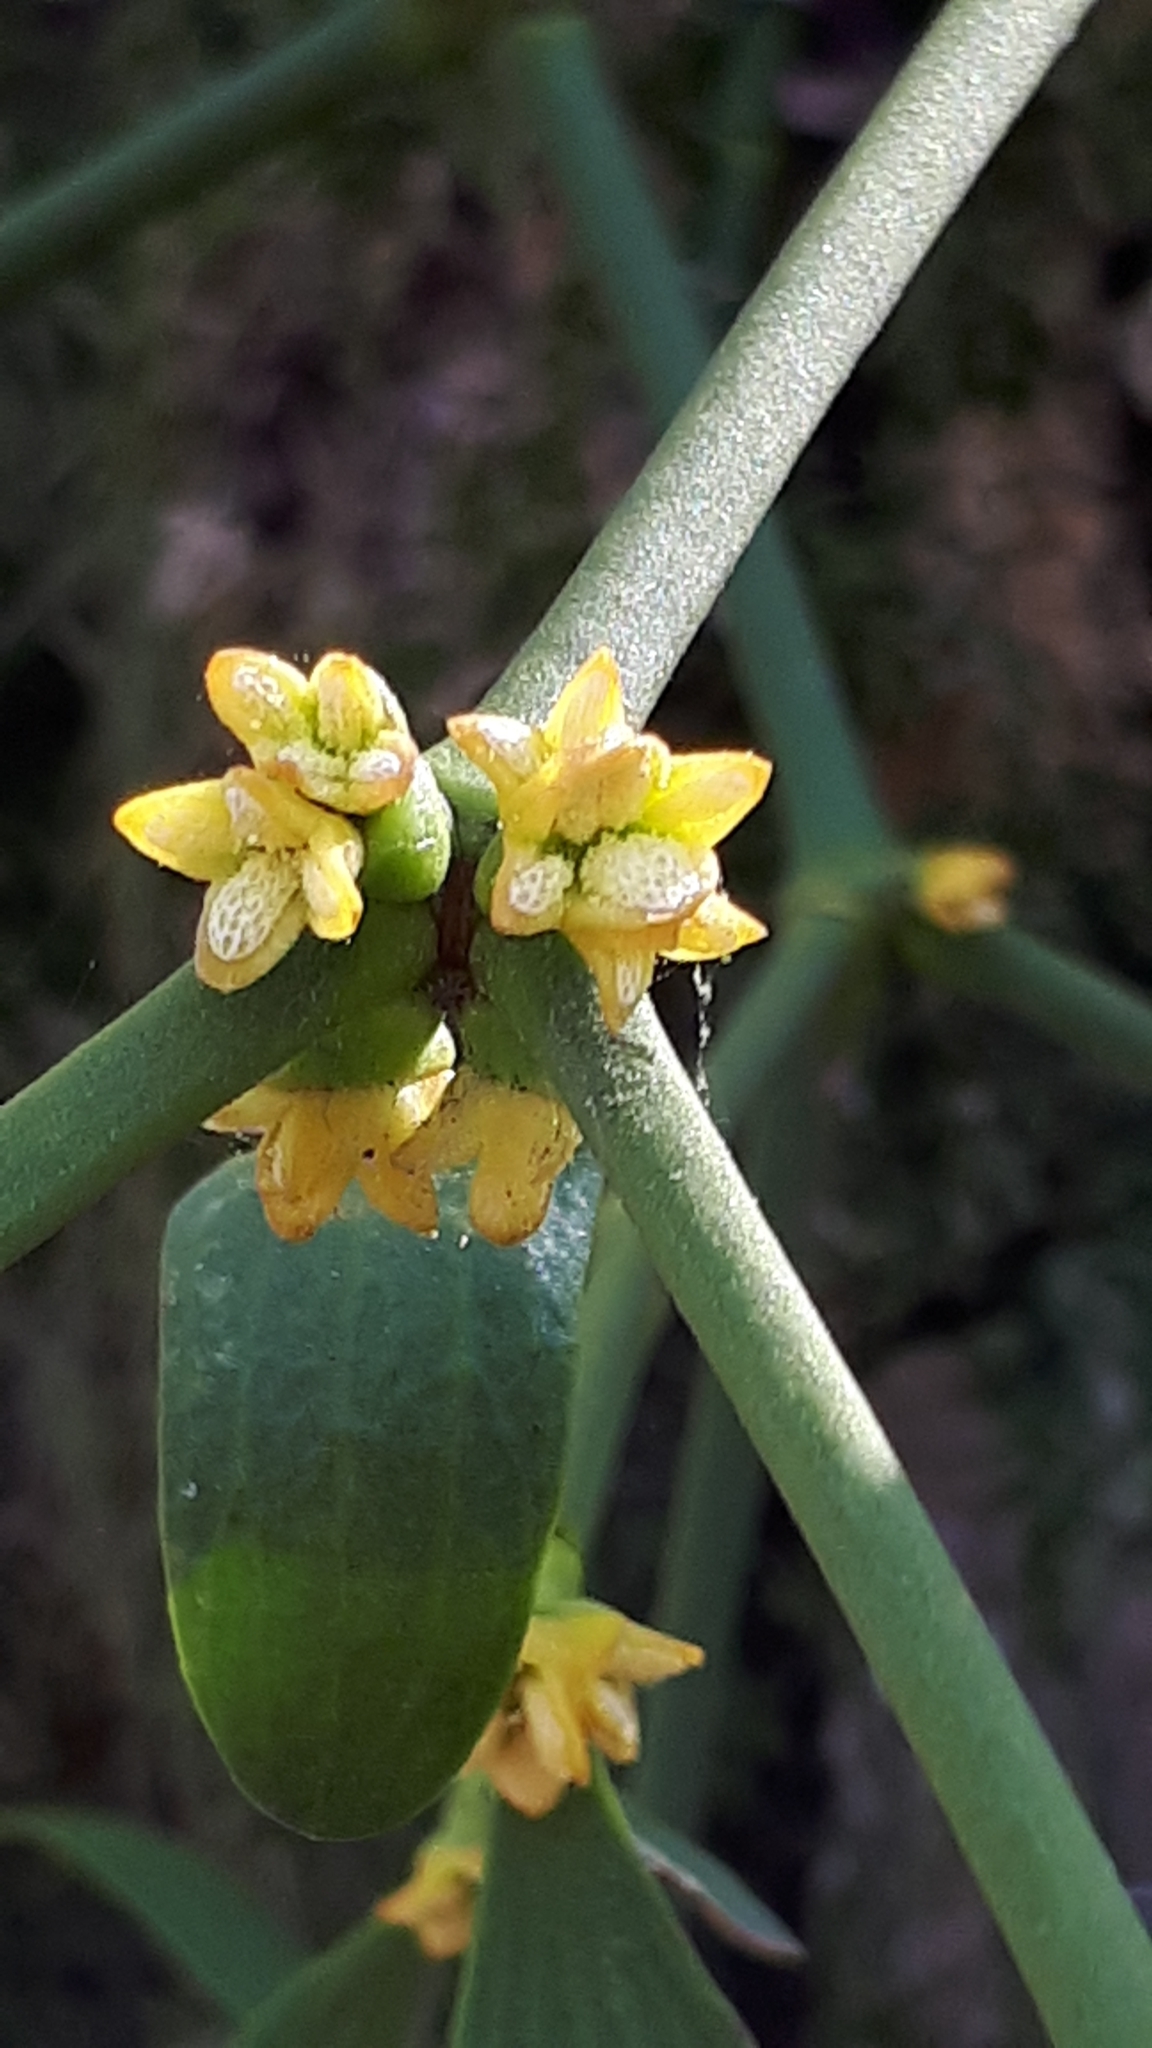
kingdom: Plantae
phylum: Tracheophyta
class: Magnoliopsida
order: Santalales
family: Viscaceae
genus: Viscum
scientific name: Viscum album
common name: Mistletoe
